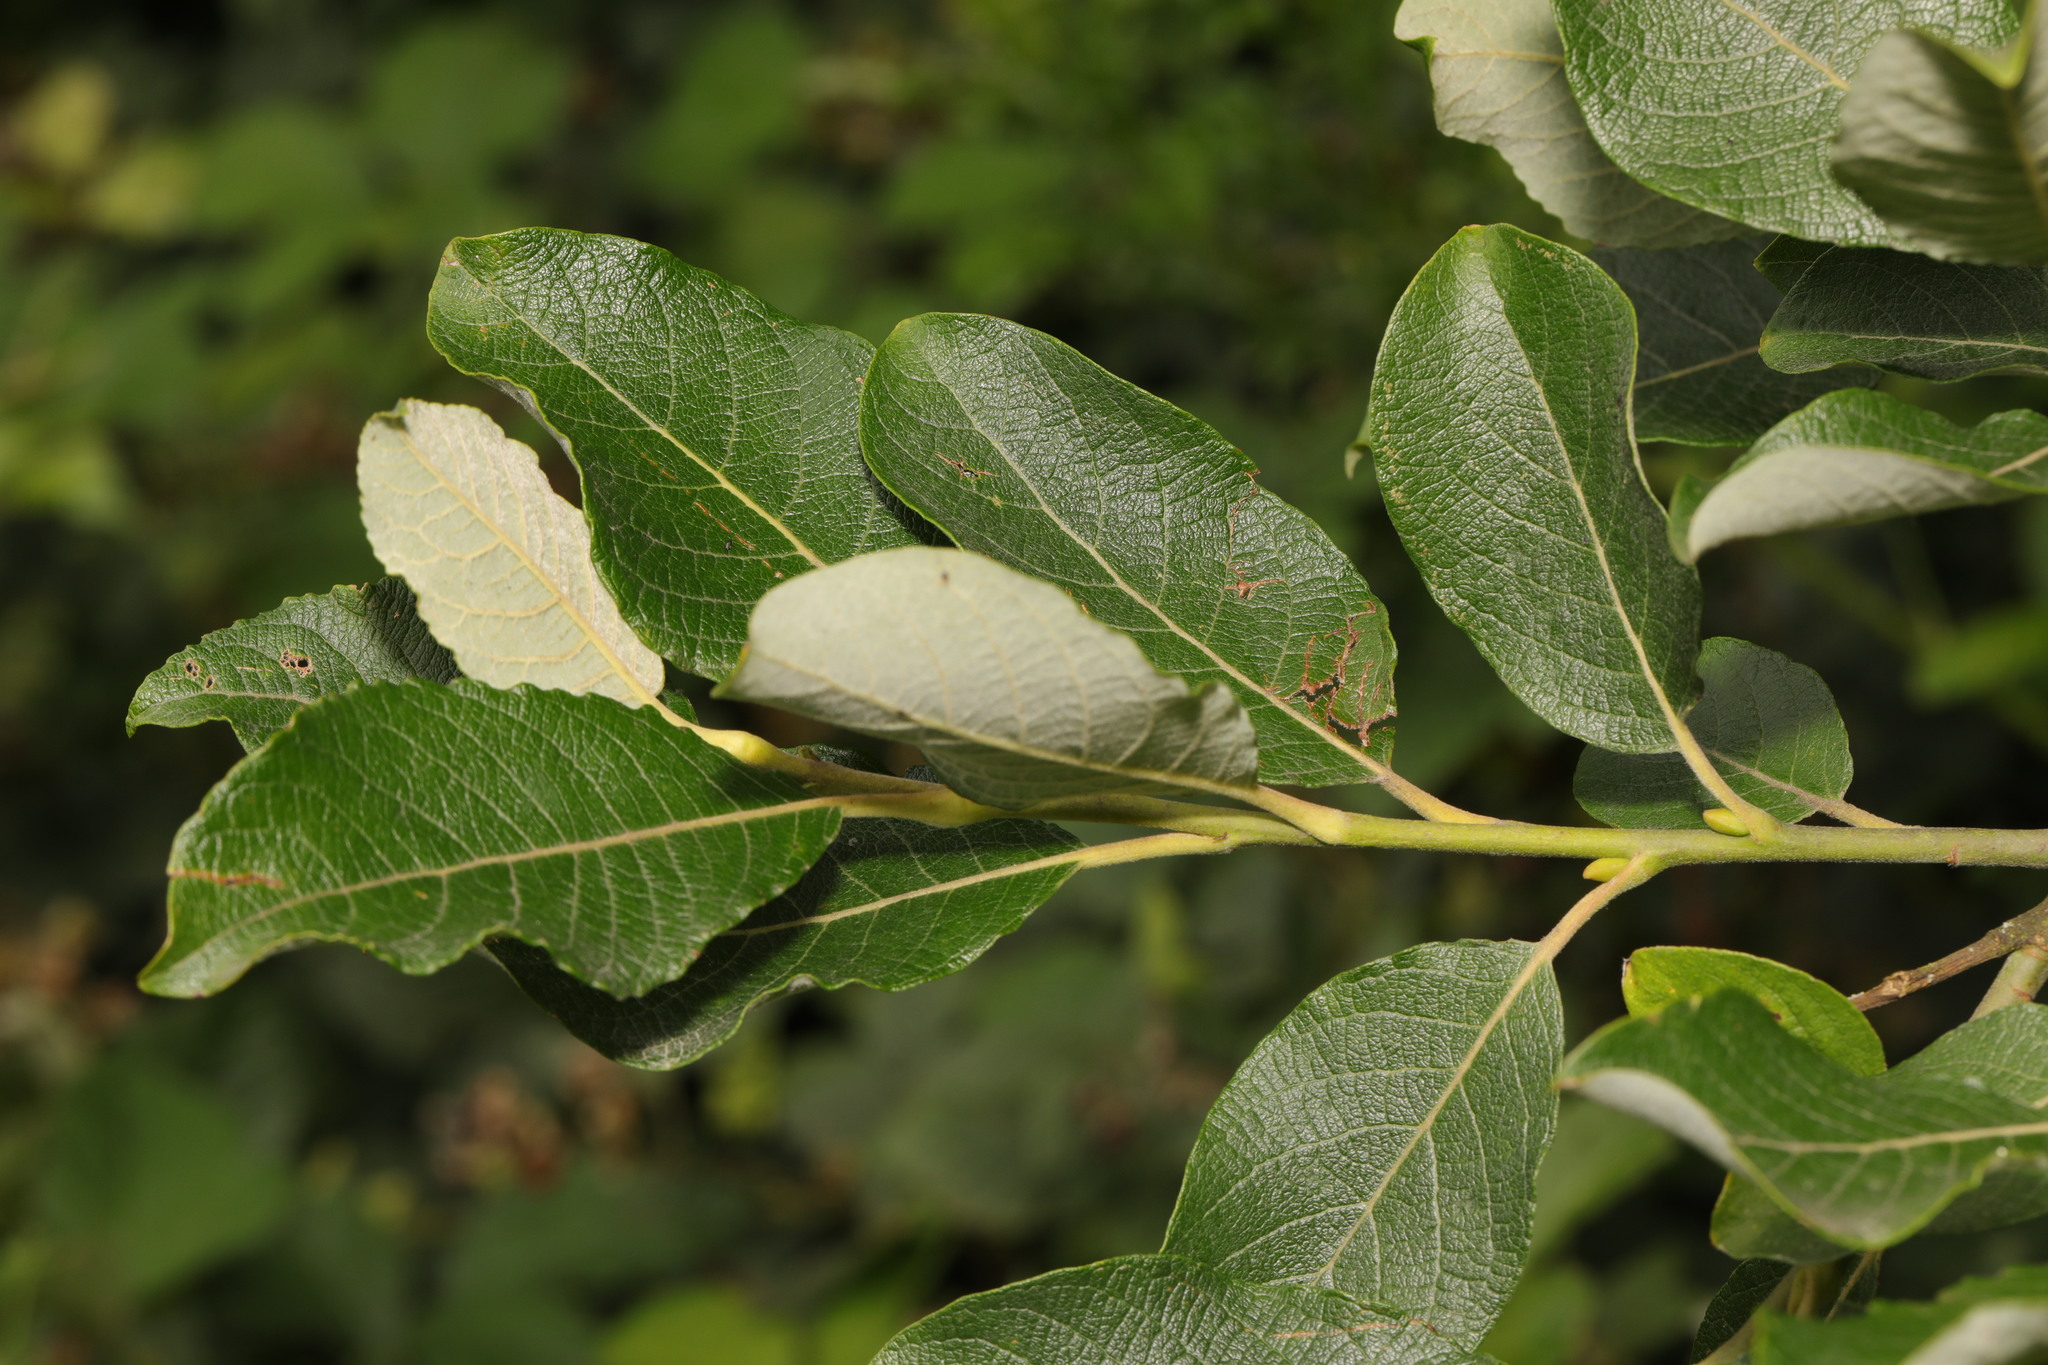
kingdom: Plantae
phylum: Tracheophyta
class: Magnoliopsida
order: Malpighiales
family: Salicaceae
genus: Salix
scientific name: Salix caprea
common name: Goat willow
